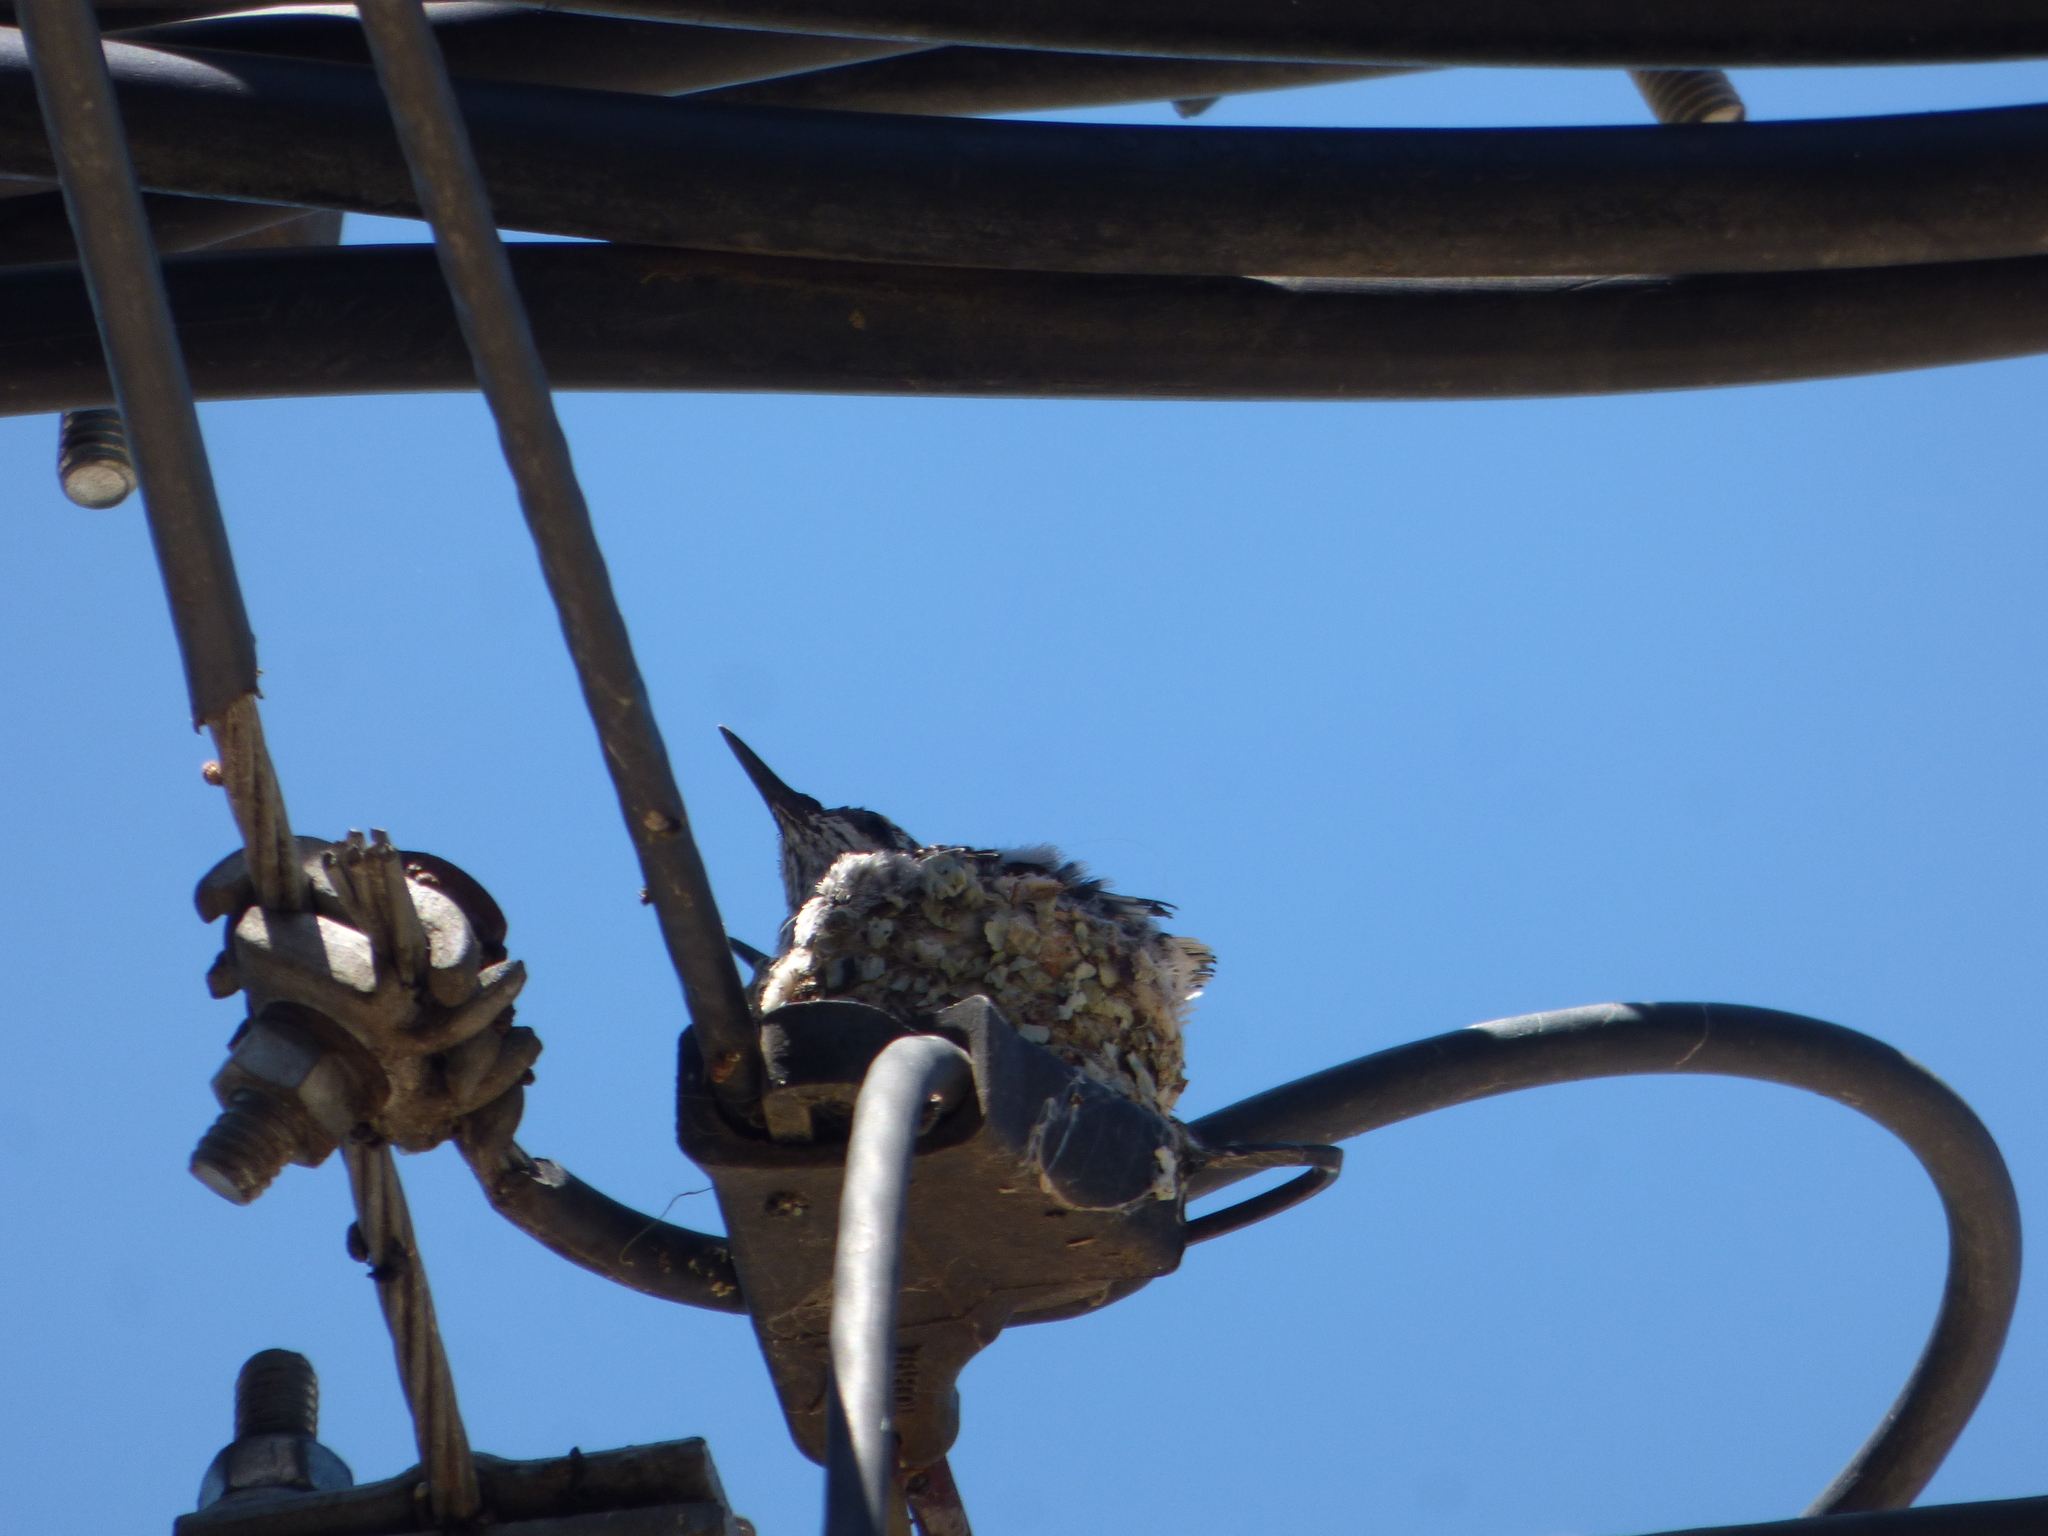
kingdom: Animalia
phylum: Chordata
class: Aves
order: Apodiformes
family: Trochilidae
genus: Heliomaster
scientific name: Heliomaster furcifer
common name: Blue-tufted starthroat
